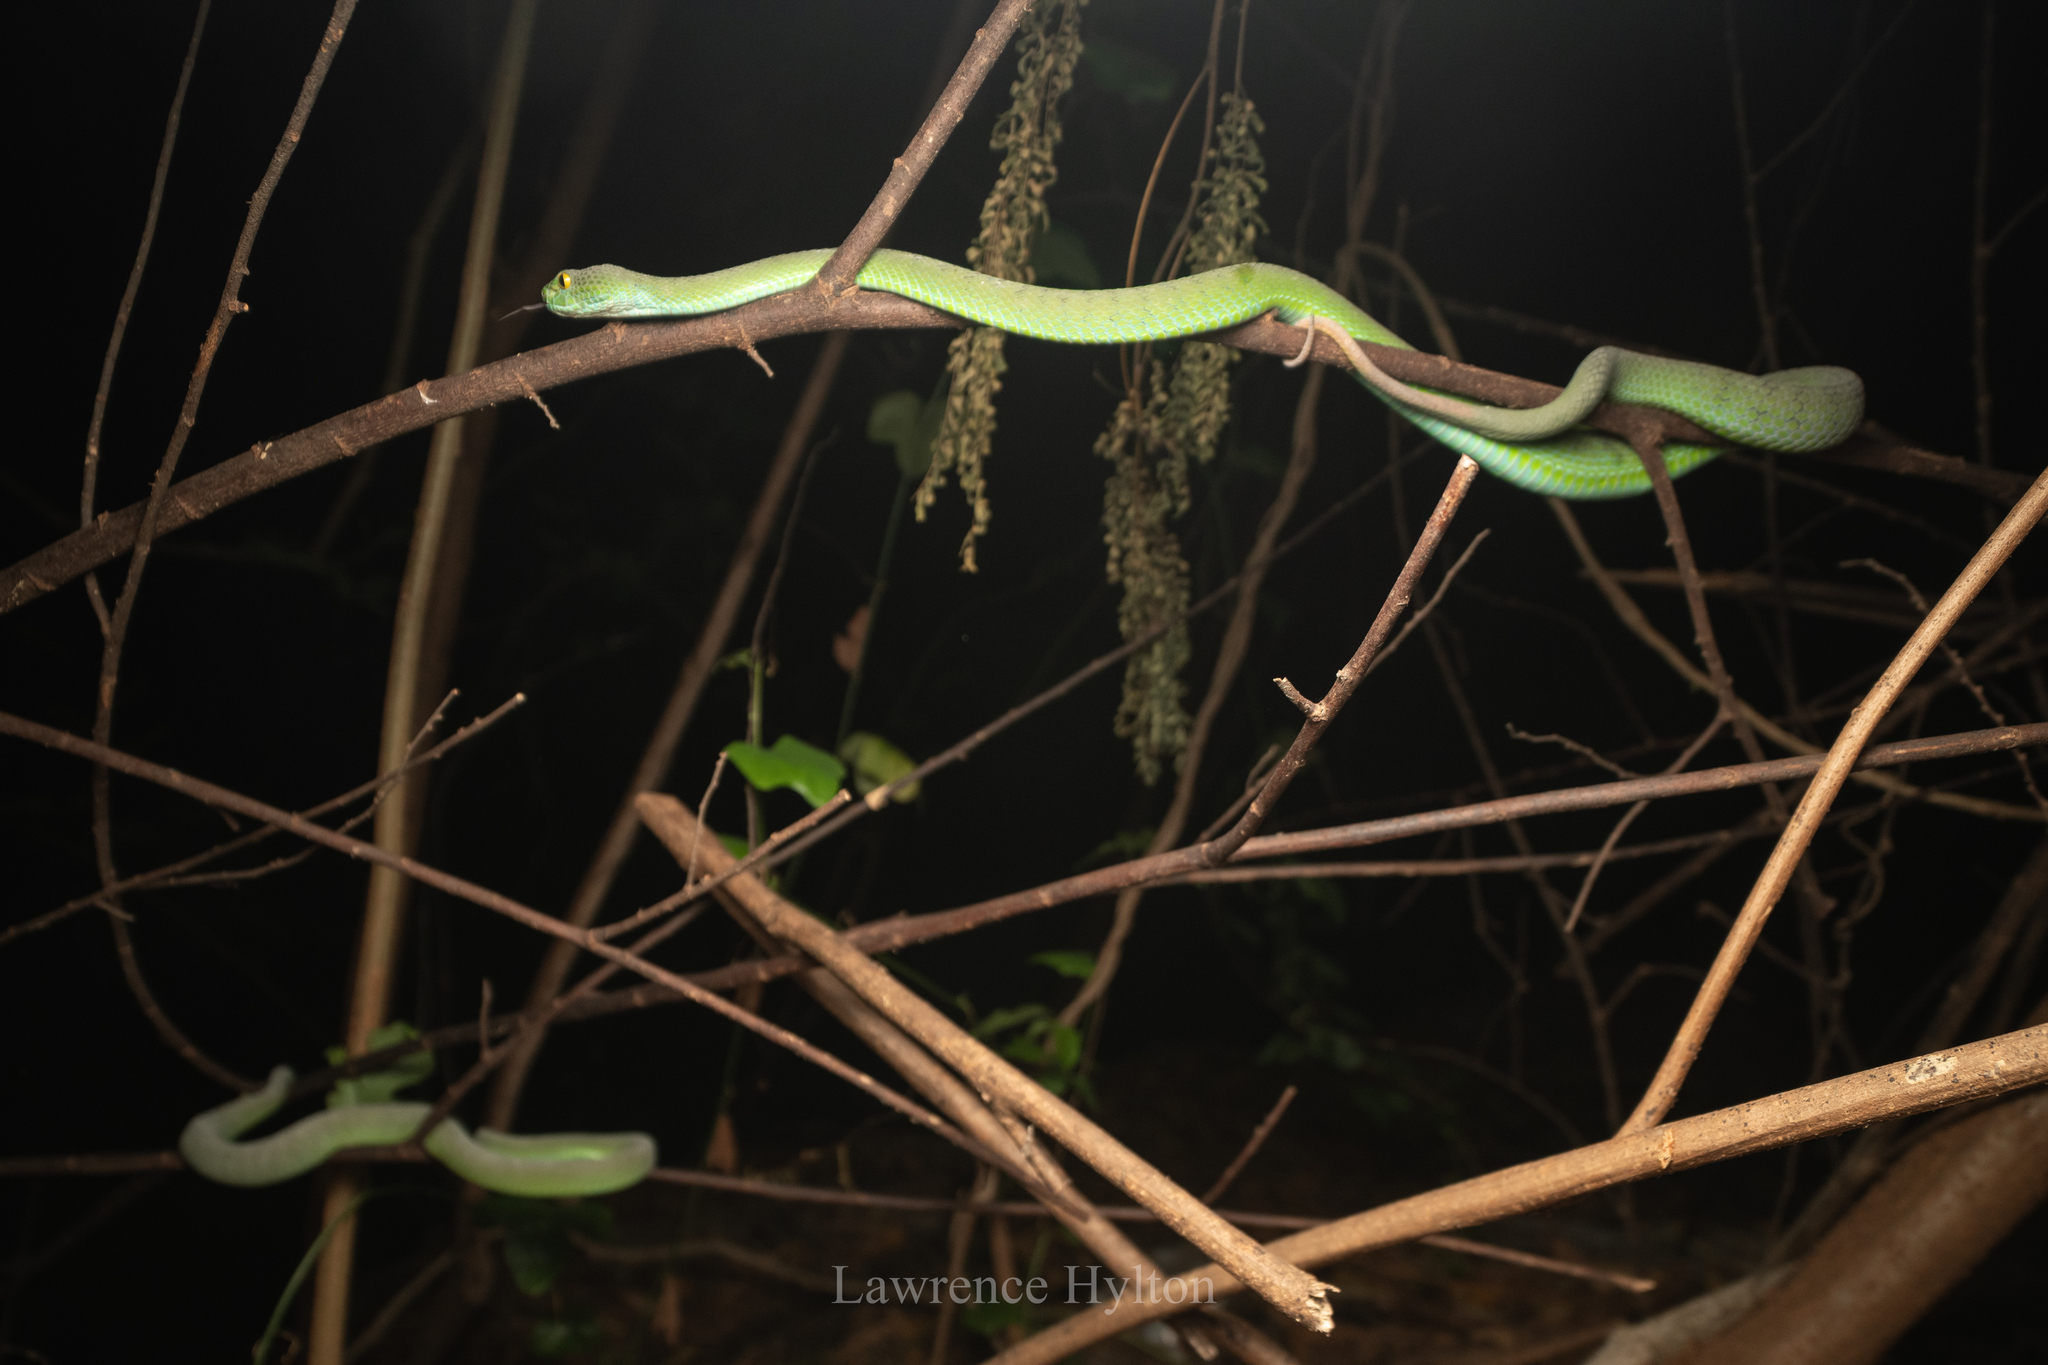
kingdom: Animalia
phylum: Chordata
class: Squamata
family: Viperidae
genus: Trimeresurus
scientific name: Trimeresurus macrops
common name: Kramer's pit viper
